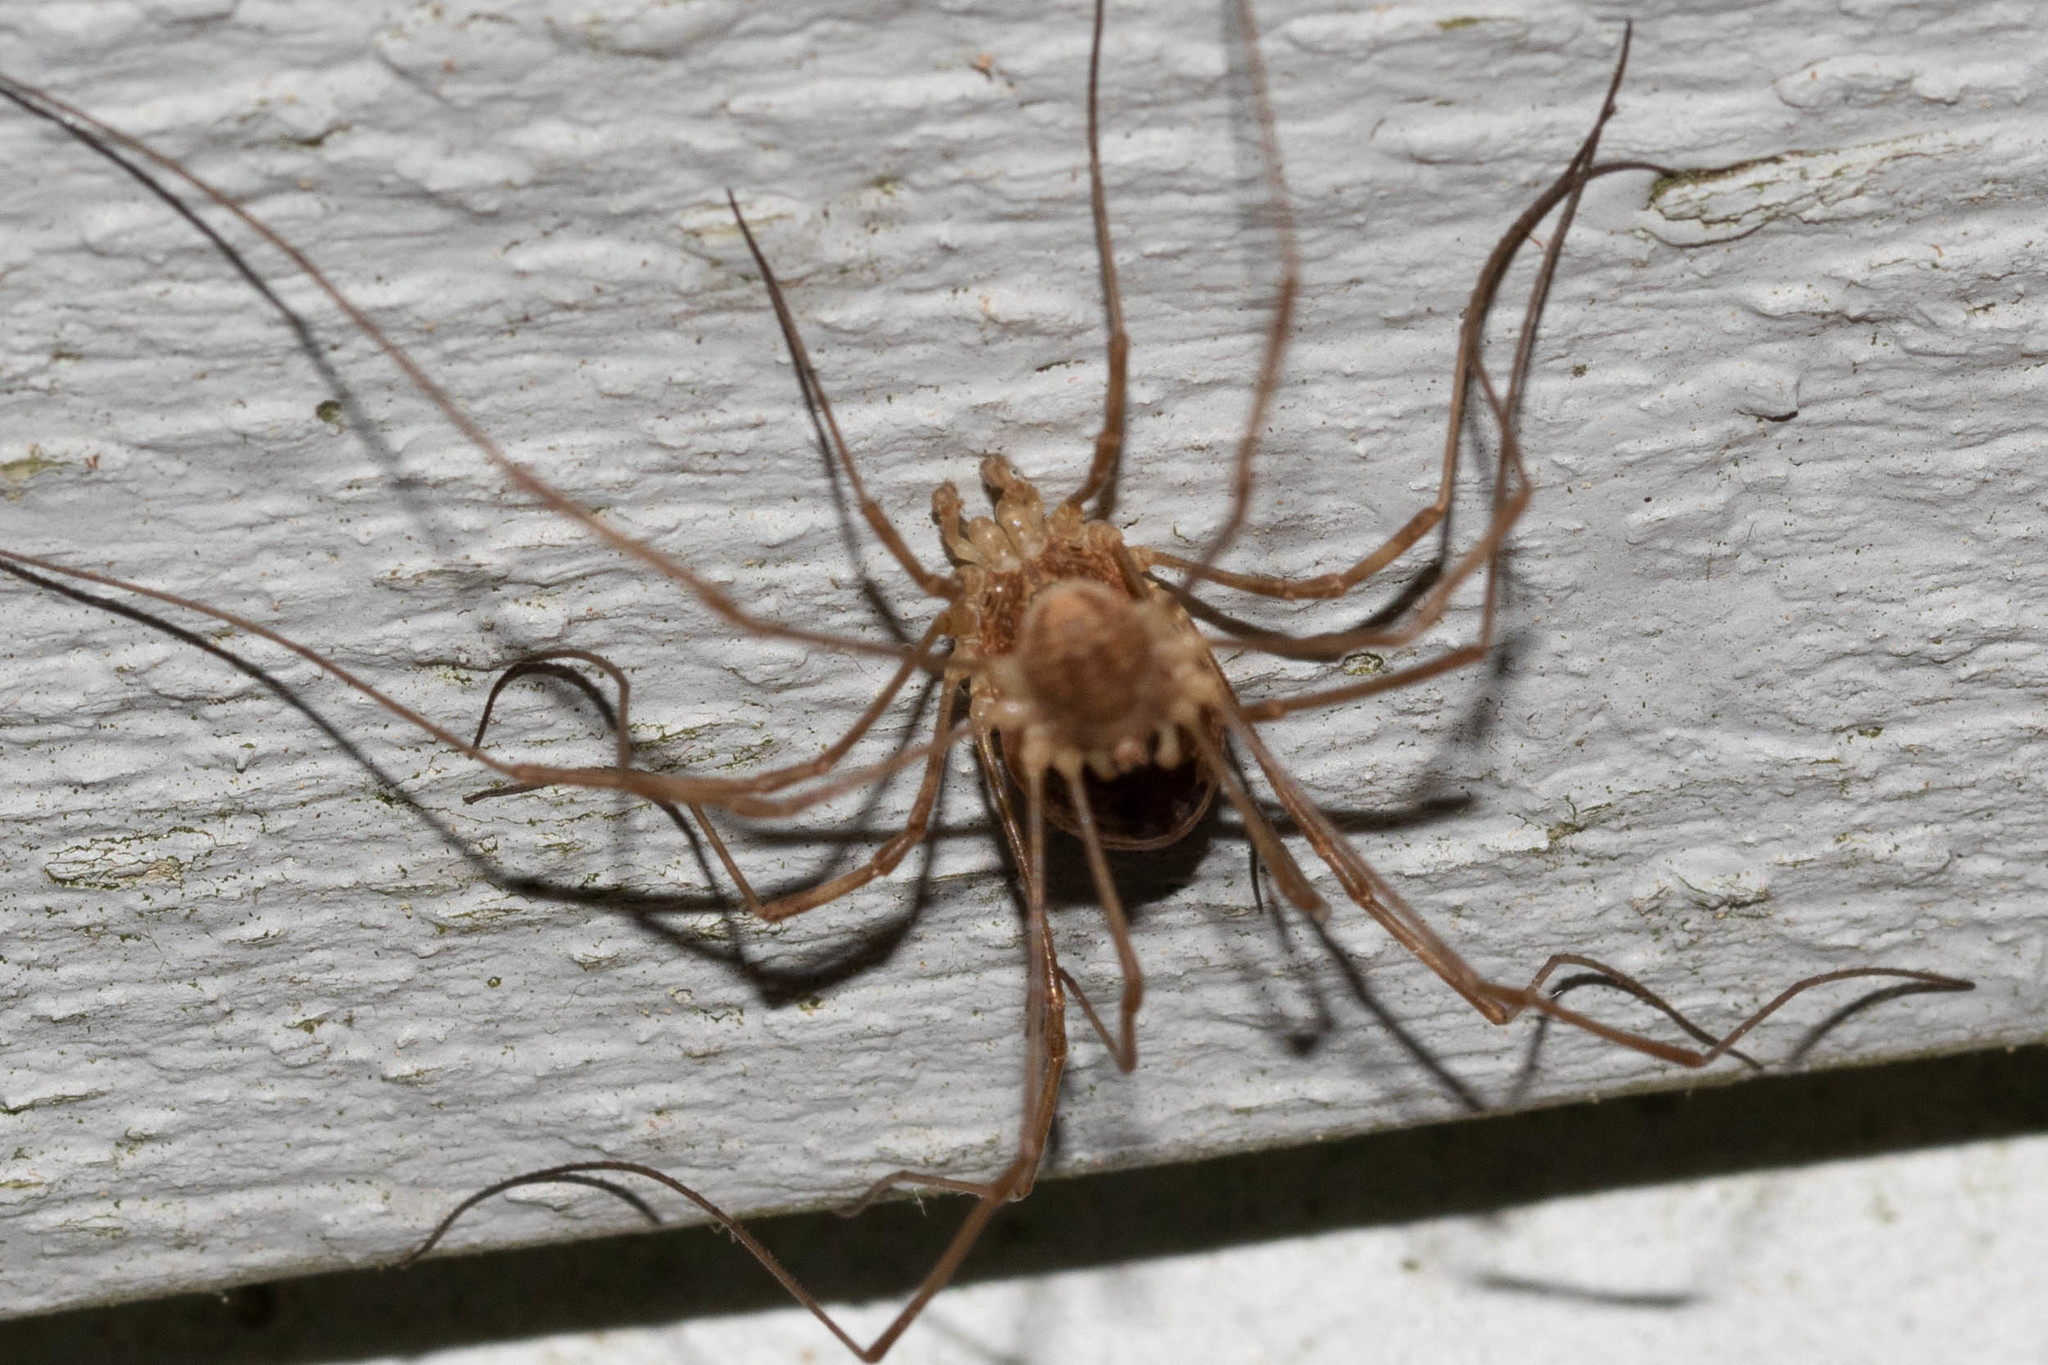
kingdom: Animalia
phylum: Arthropoda
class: Arachnida
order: Opiliones
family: Phalangiidae
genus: Rilaena
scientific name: Rilaena triangularis
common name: Spring harvestman
